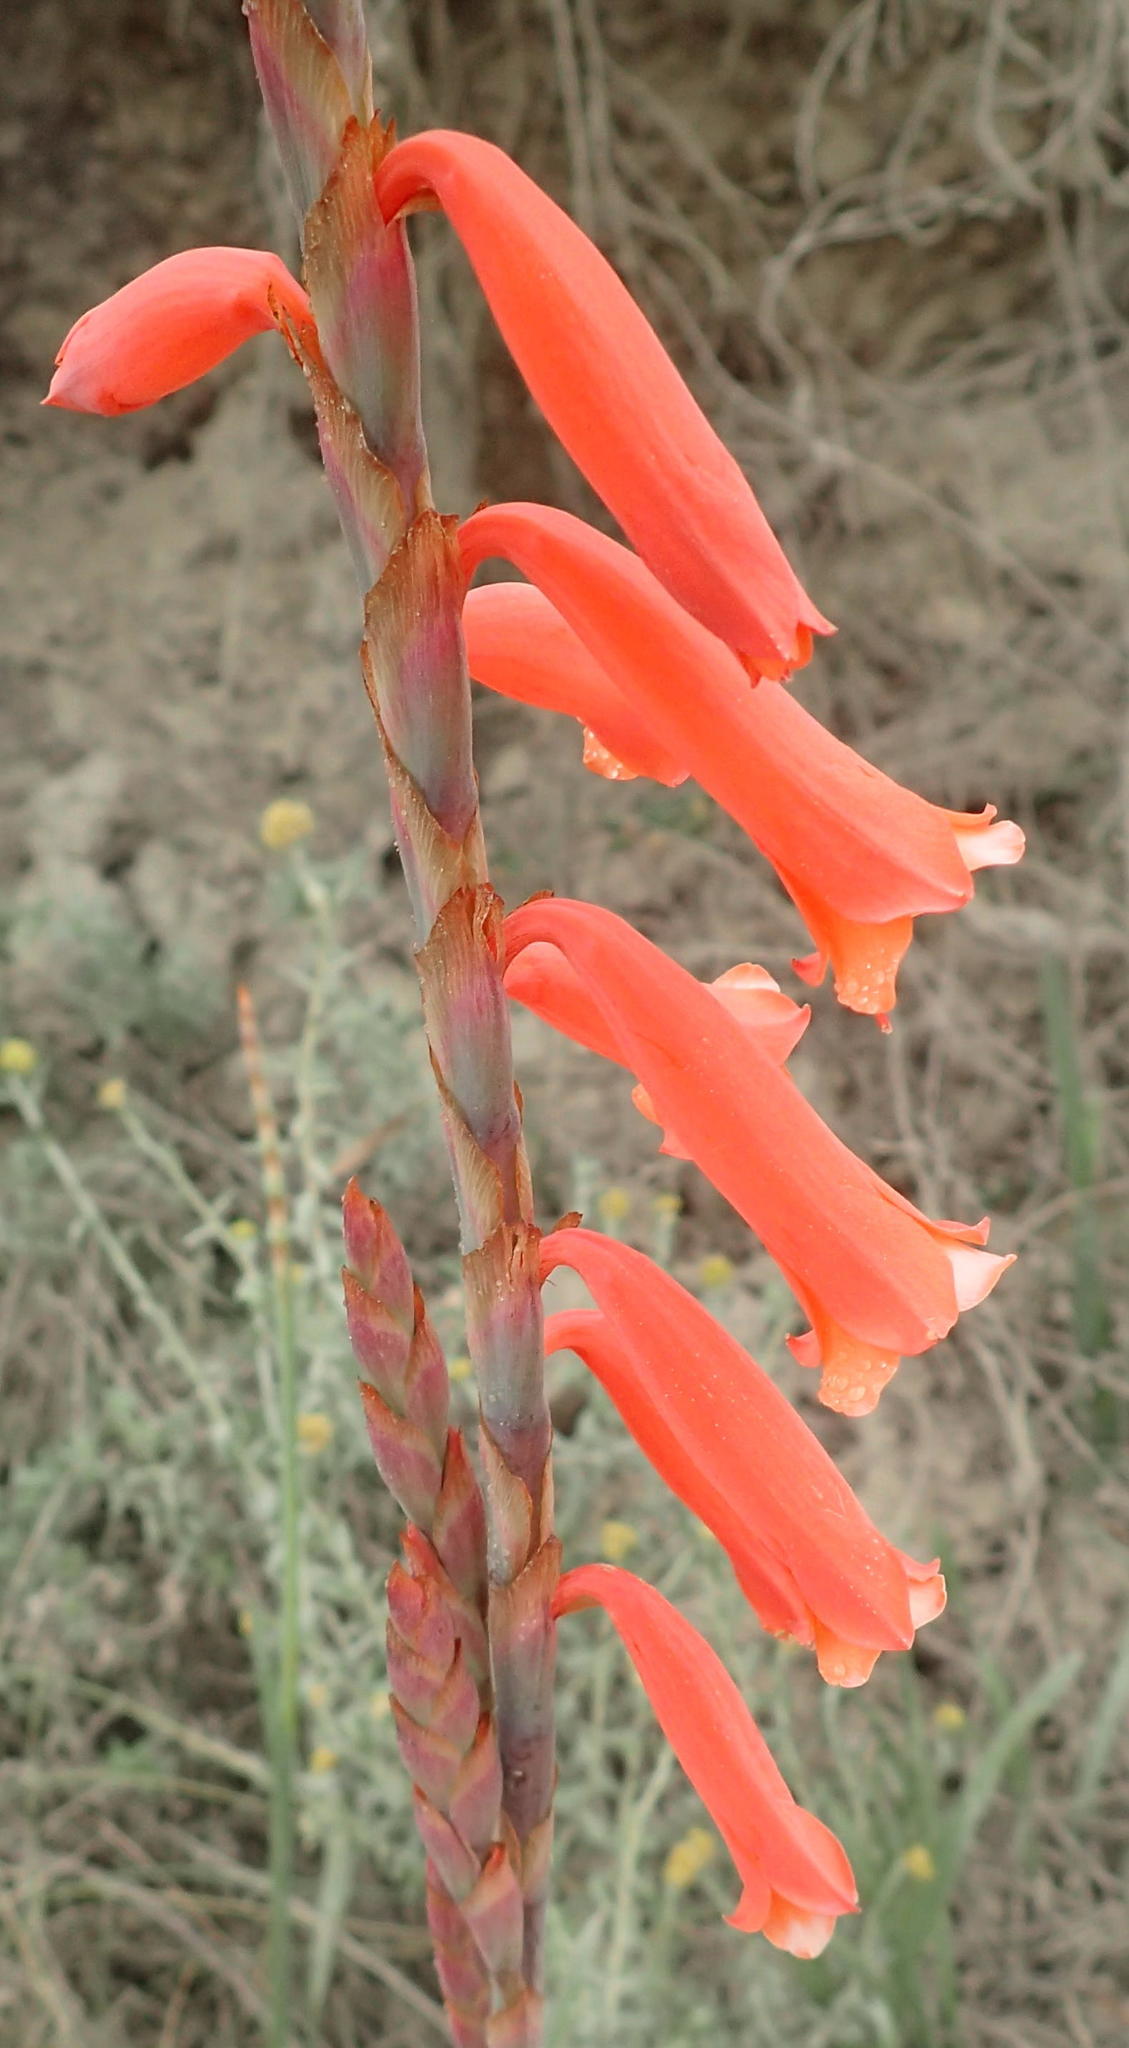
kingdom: Plantae
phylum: Tracheophyta
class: Liliopsida
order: Asparagales
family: Iridaceae
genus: Watsonia
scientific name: Watsonia aletroides
